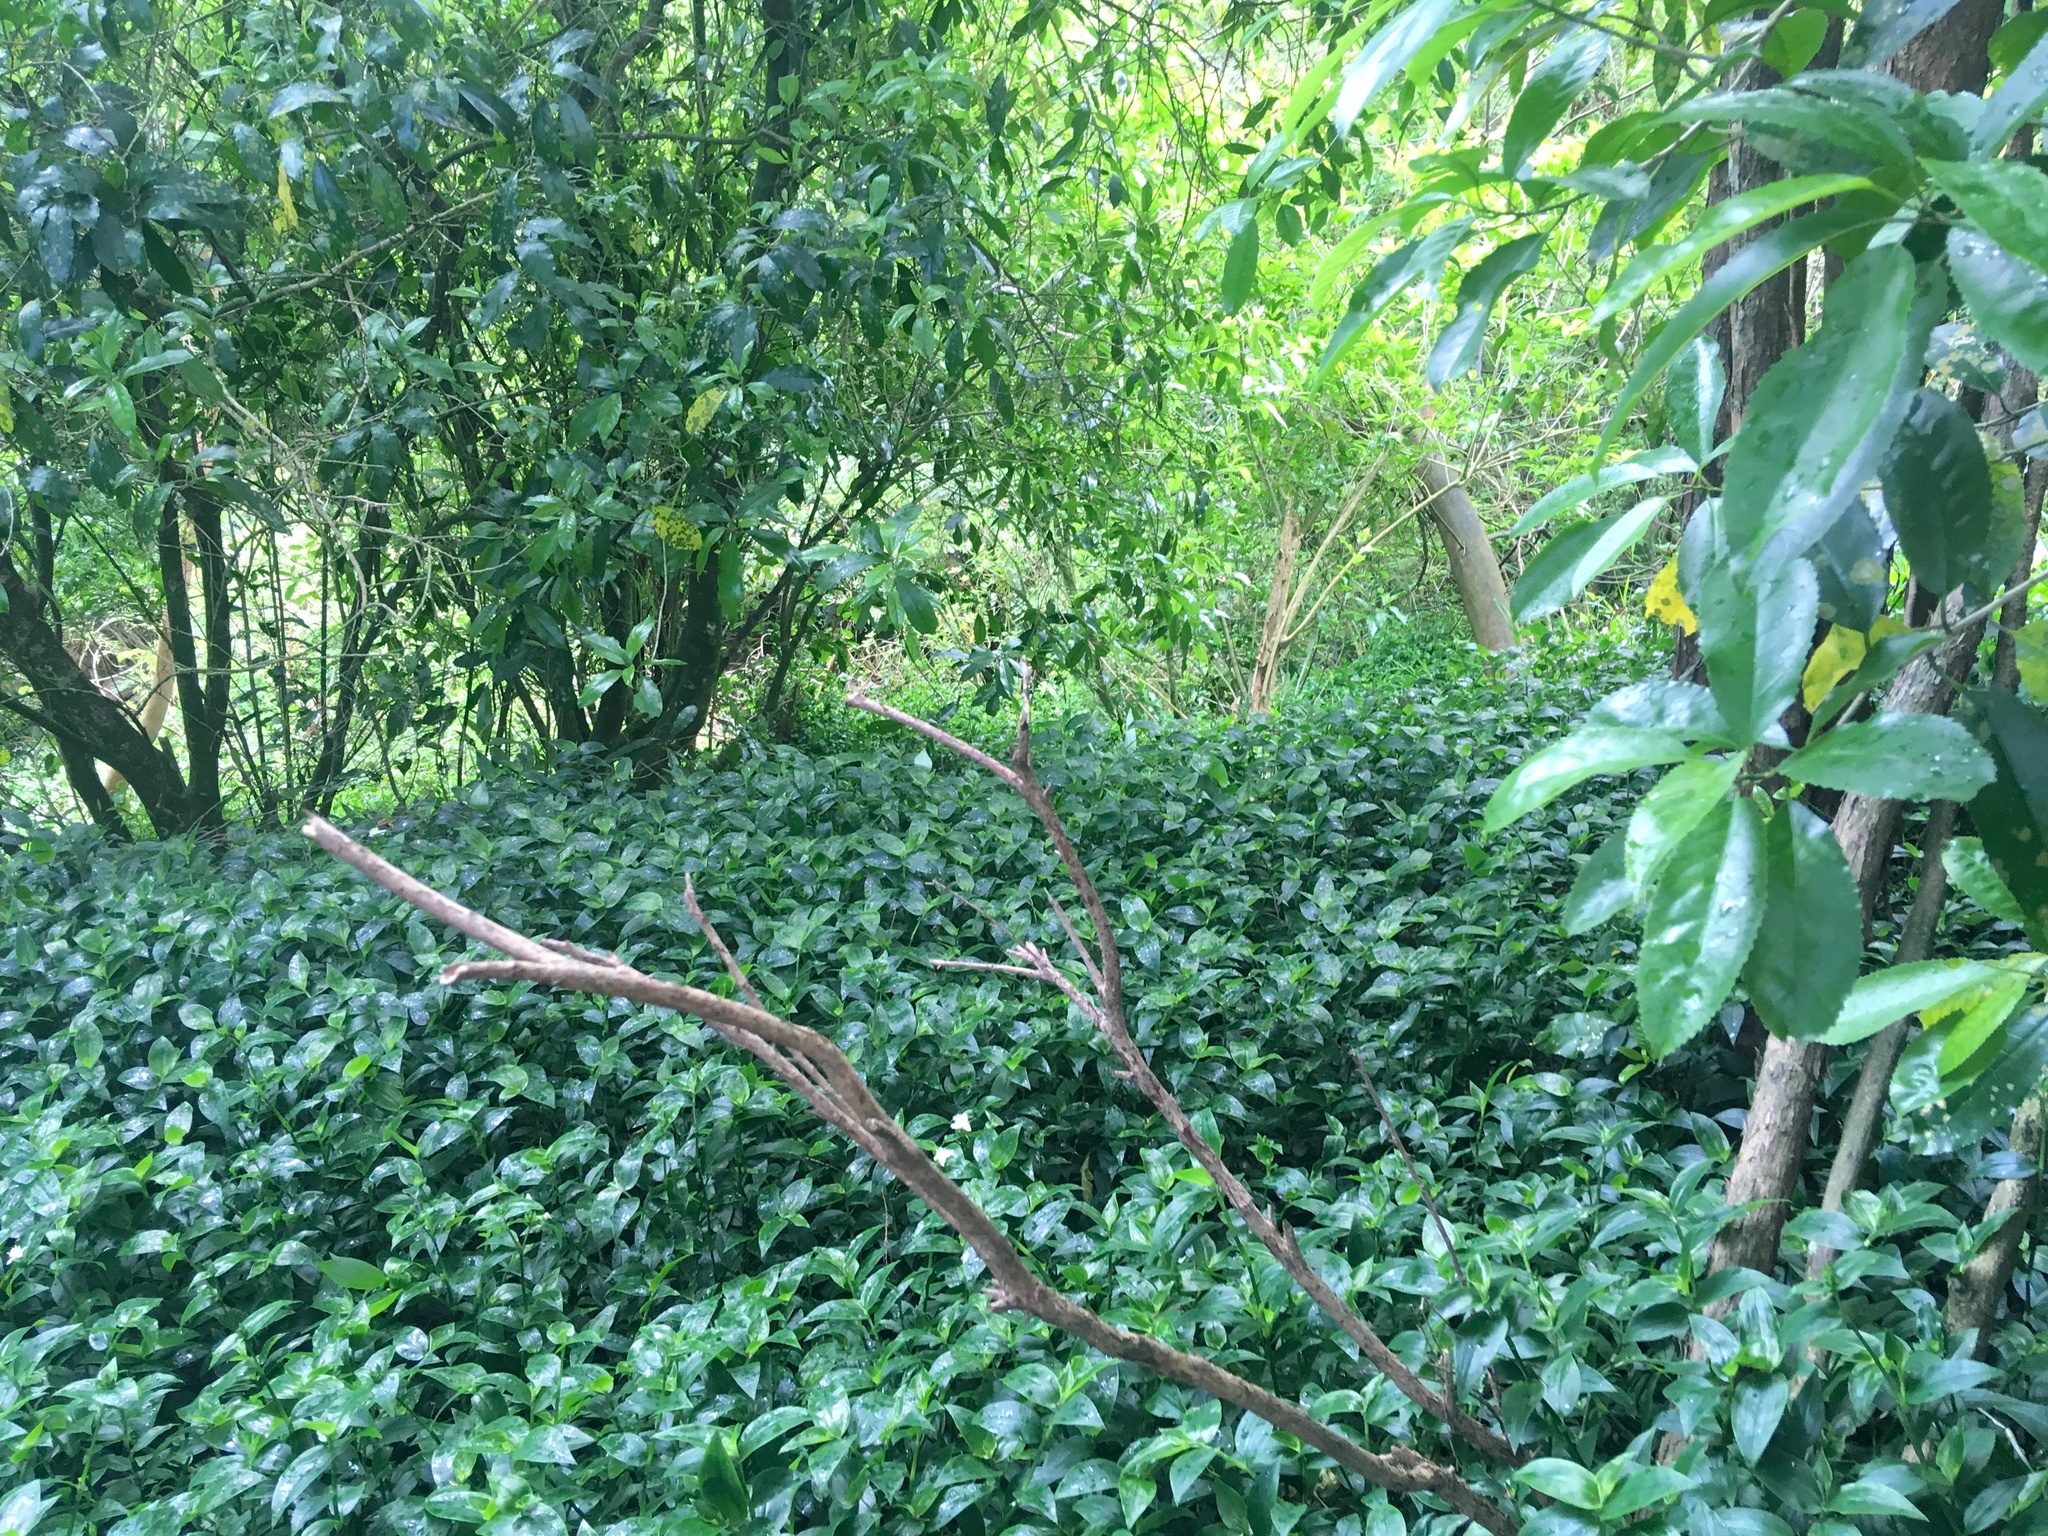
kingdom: Plantae
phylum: Tracheophyta
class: Magnoliopsida
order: Fabales
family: Fabaceae
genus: Paraserianthes
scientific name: Paraserianthes lophantha
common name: Plume albizia
